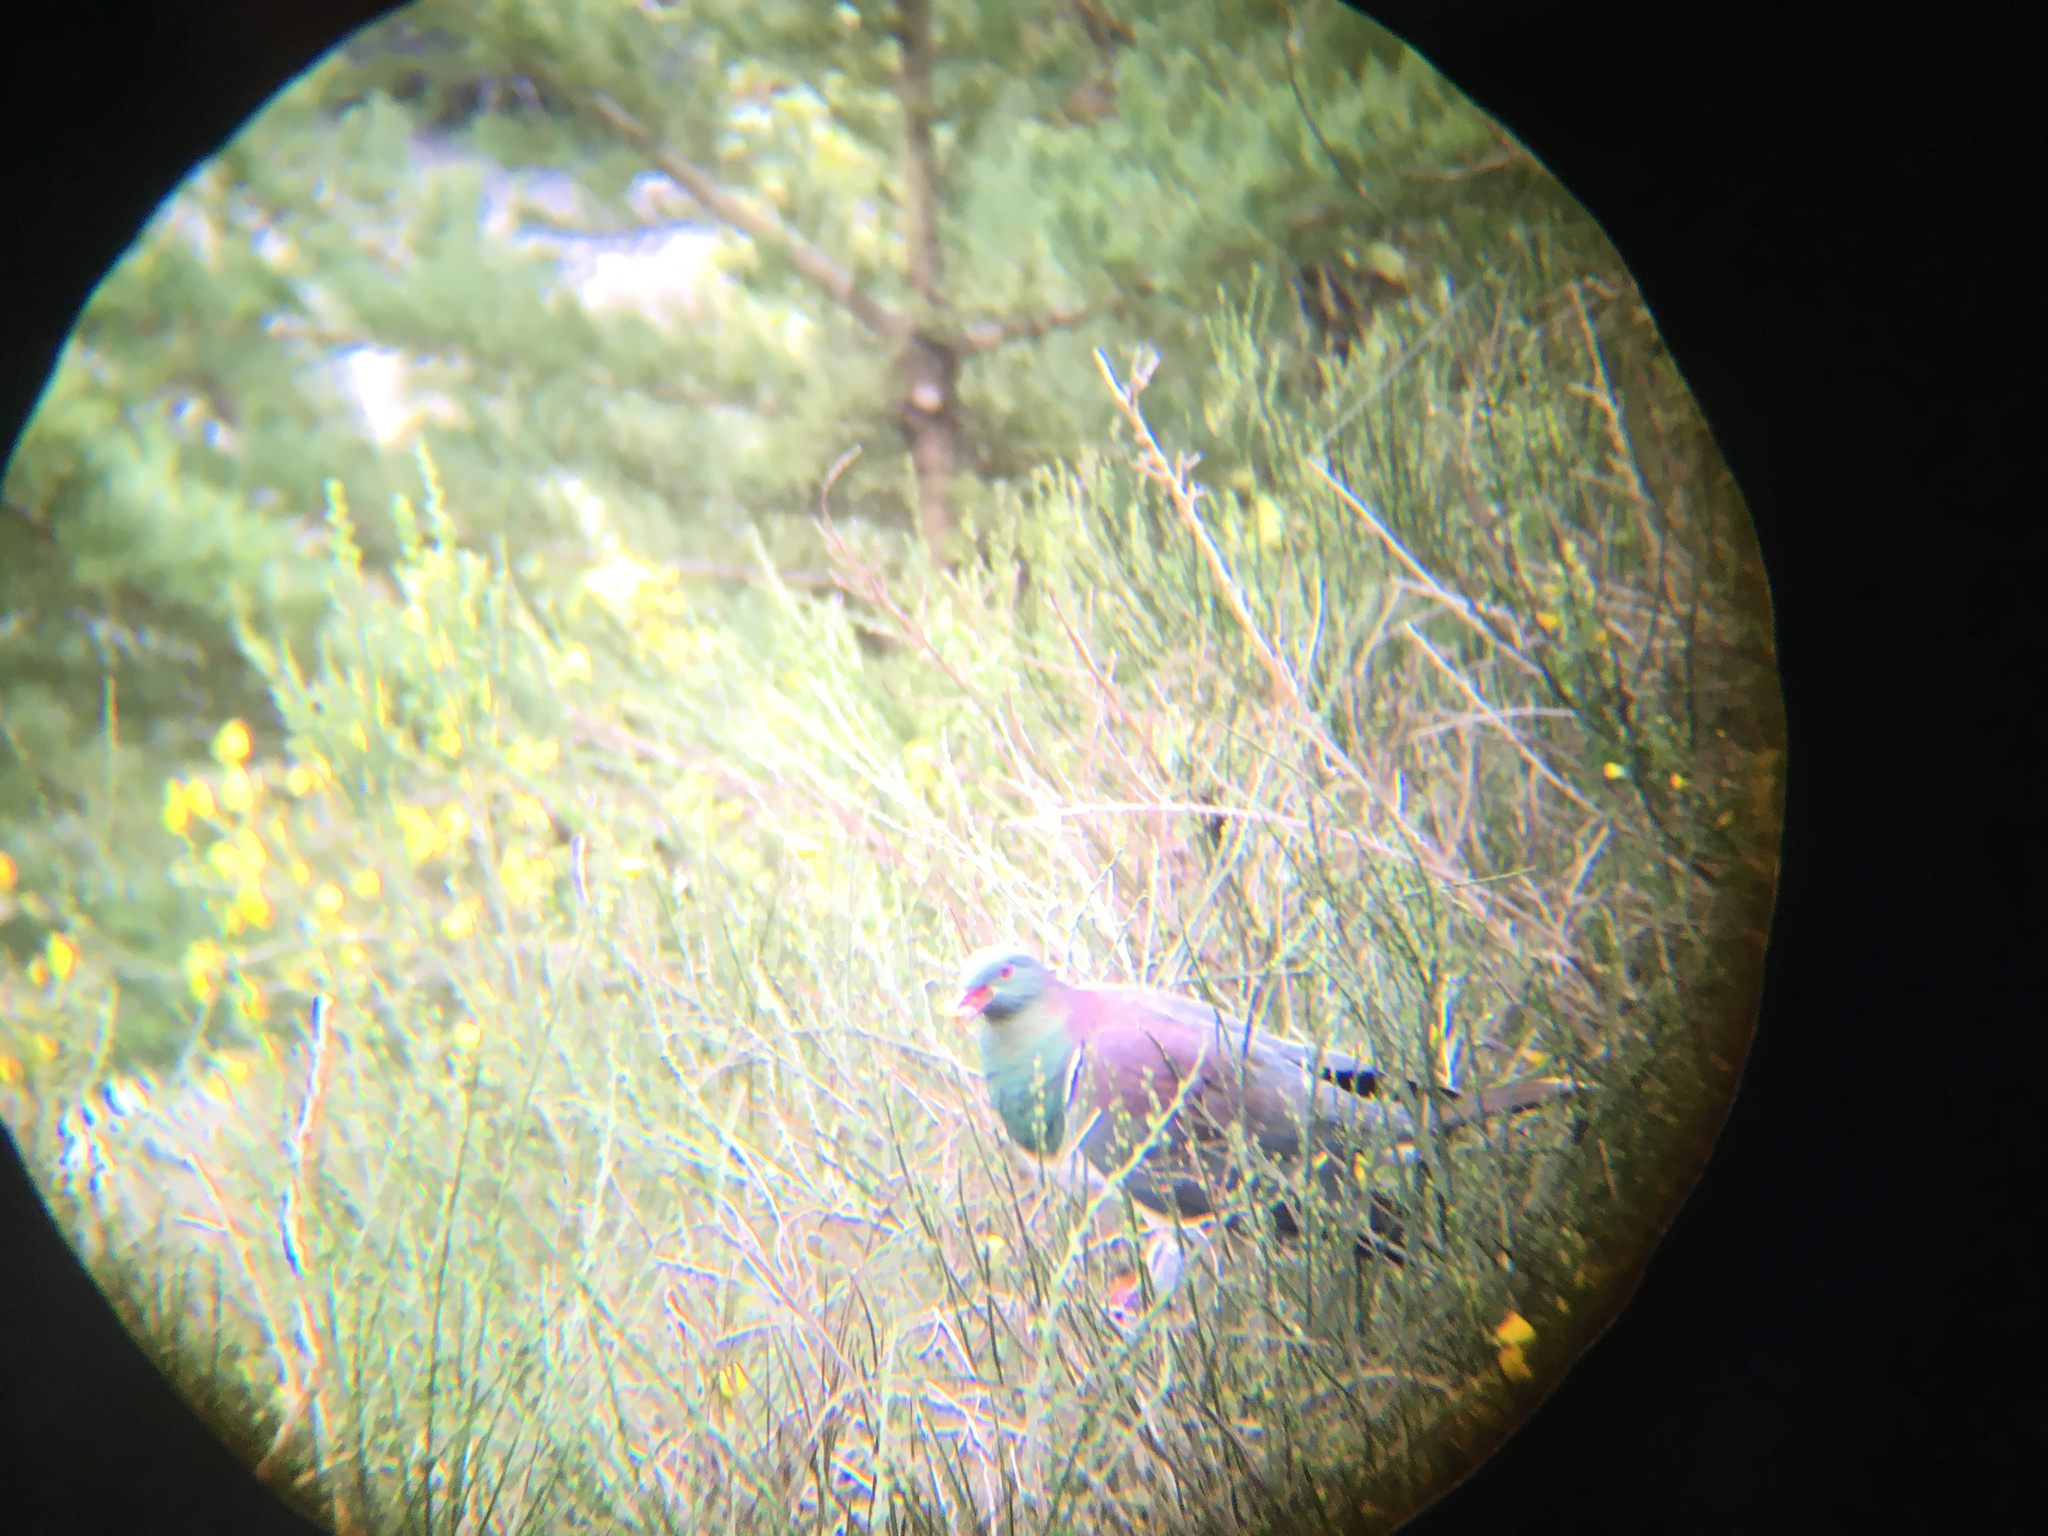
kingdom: Animalia
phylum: Chordata
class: Aves
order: Columbiformes
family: Columbidae
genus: Hemiphaga
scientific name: Hemiphaga novaeseelandiae
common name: New zealand pigeon
